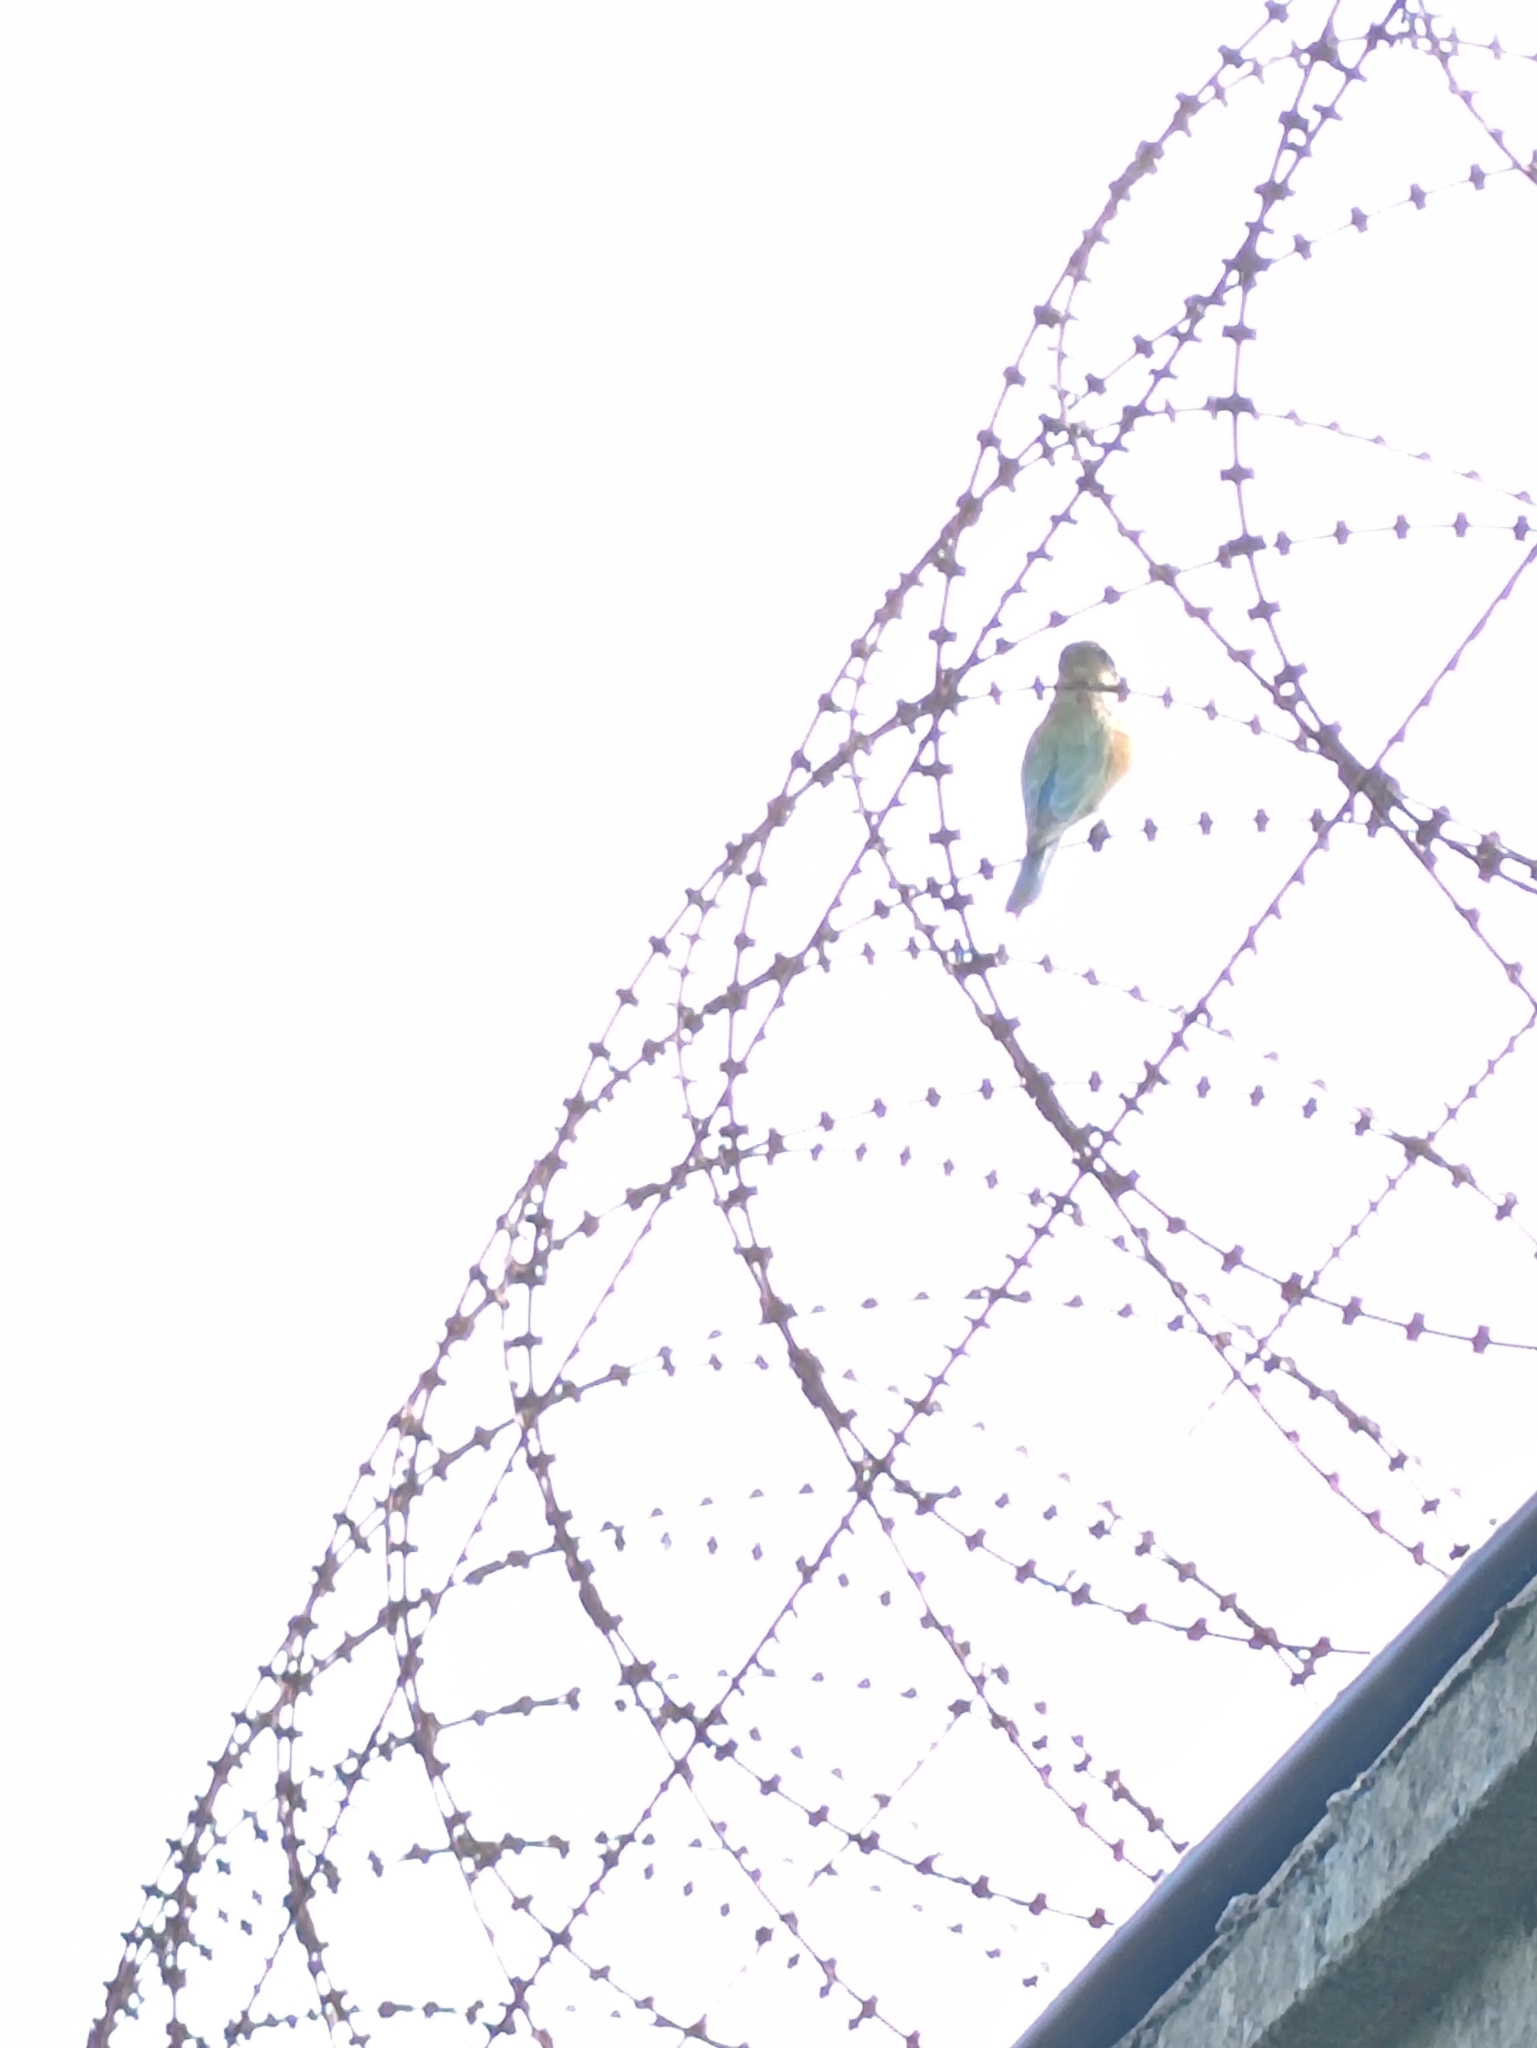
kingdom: Animalia
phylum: Chordata
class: Aves
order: Coraciiformes
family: Meropidae
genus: Merops
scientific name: Merops philippinus
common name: Blue-tailed bee-eater
